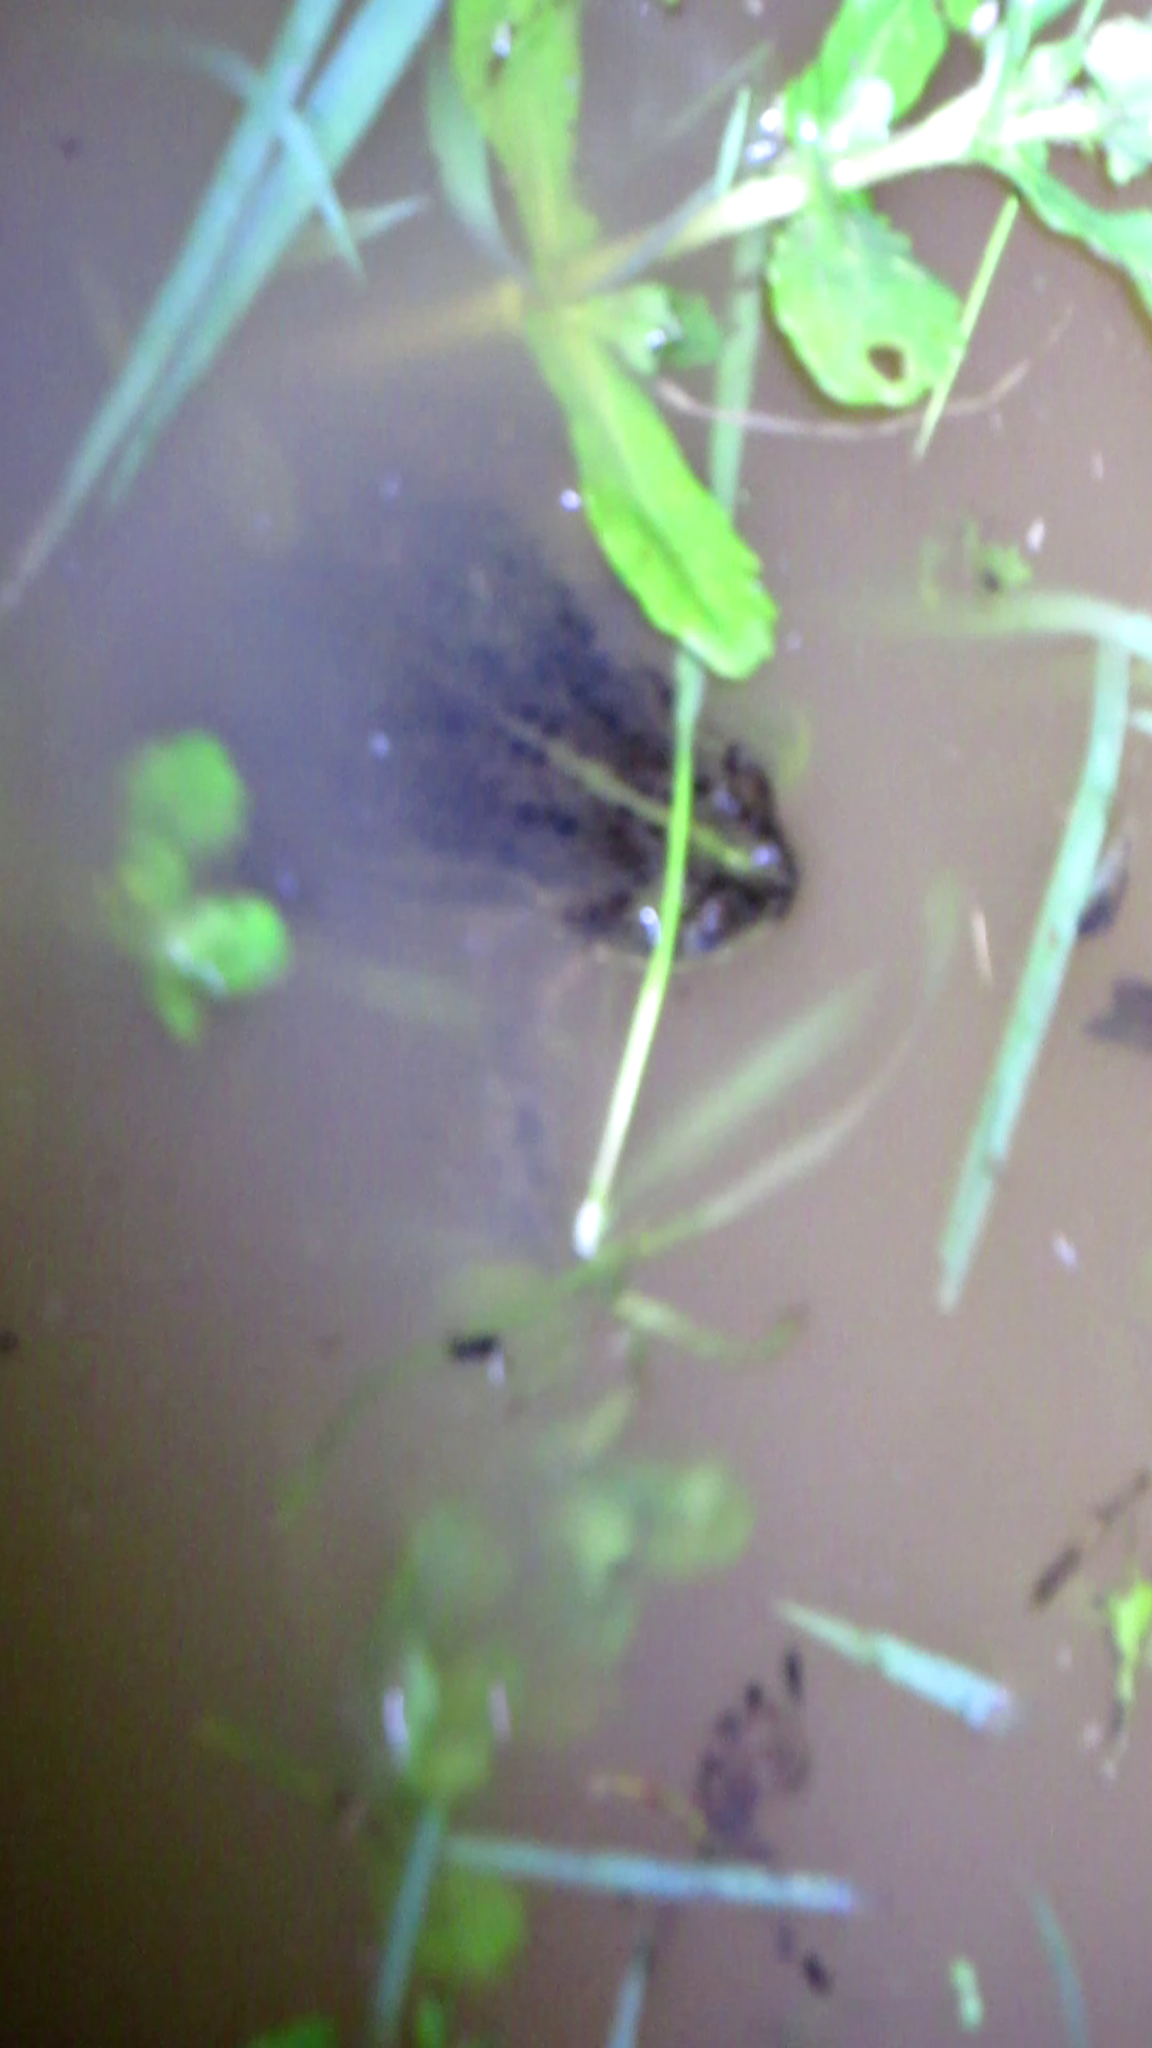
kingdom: Animalia
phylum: Chordata
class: Amphibia
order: Anura
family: Bufonidae
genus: Rhinella
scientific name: Rhinella dorbignyi
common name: D´orbigny’s toad
